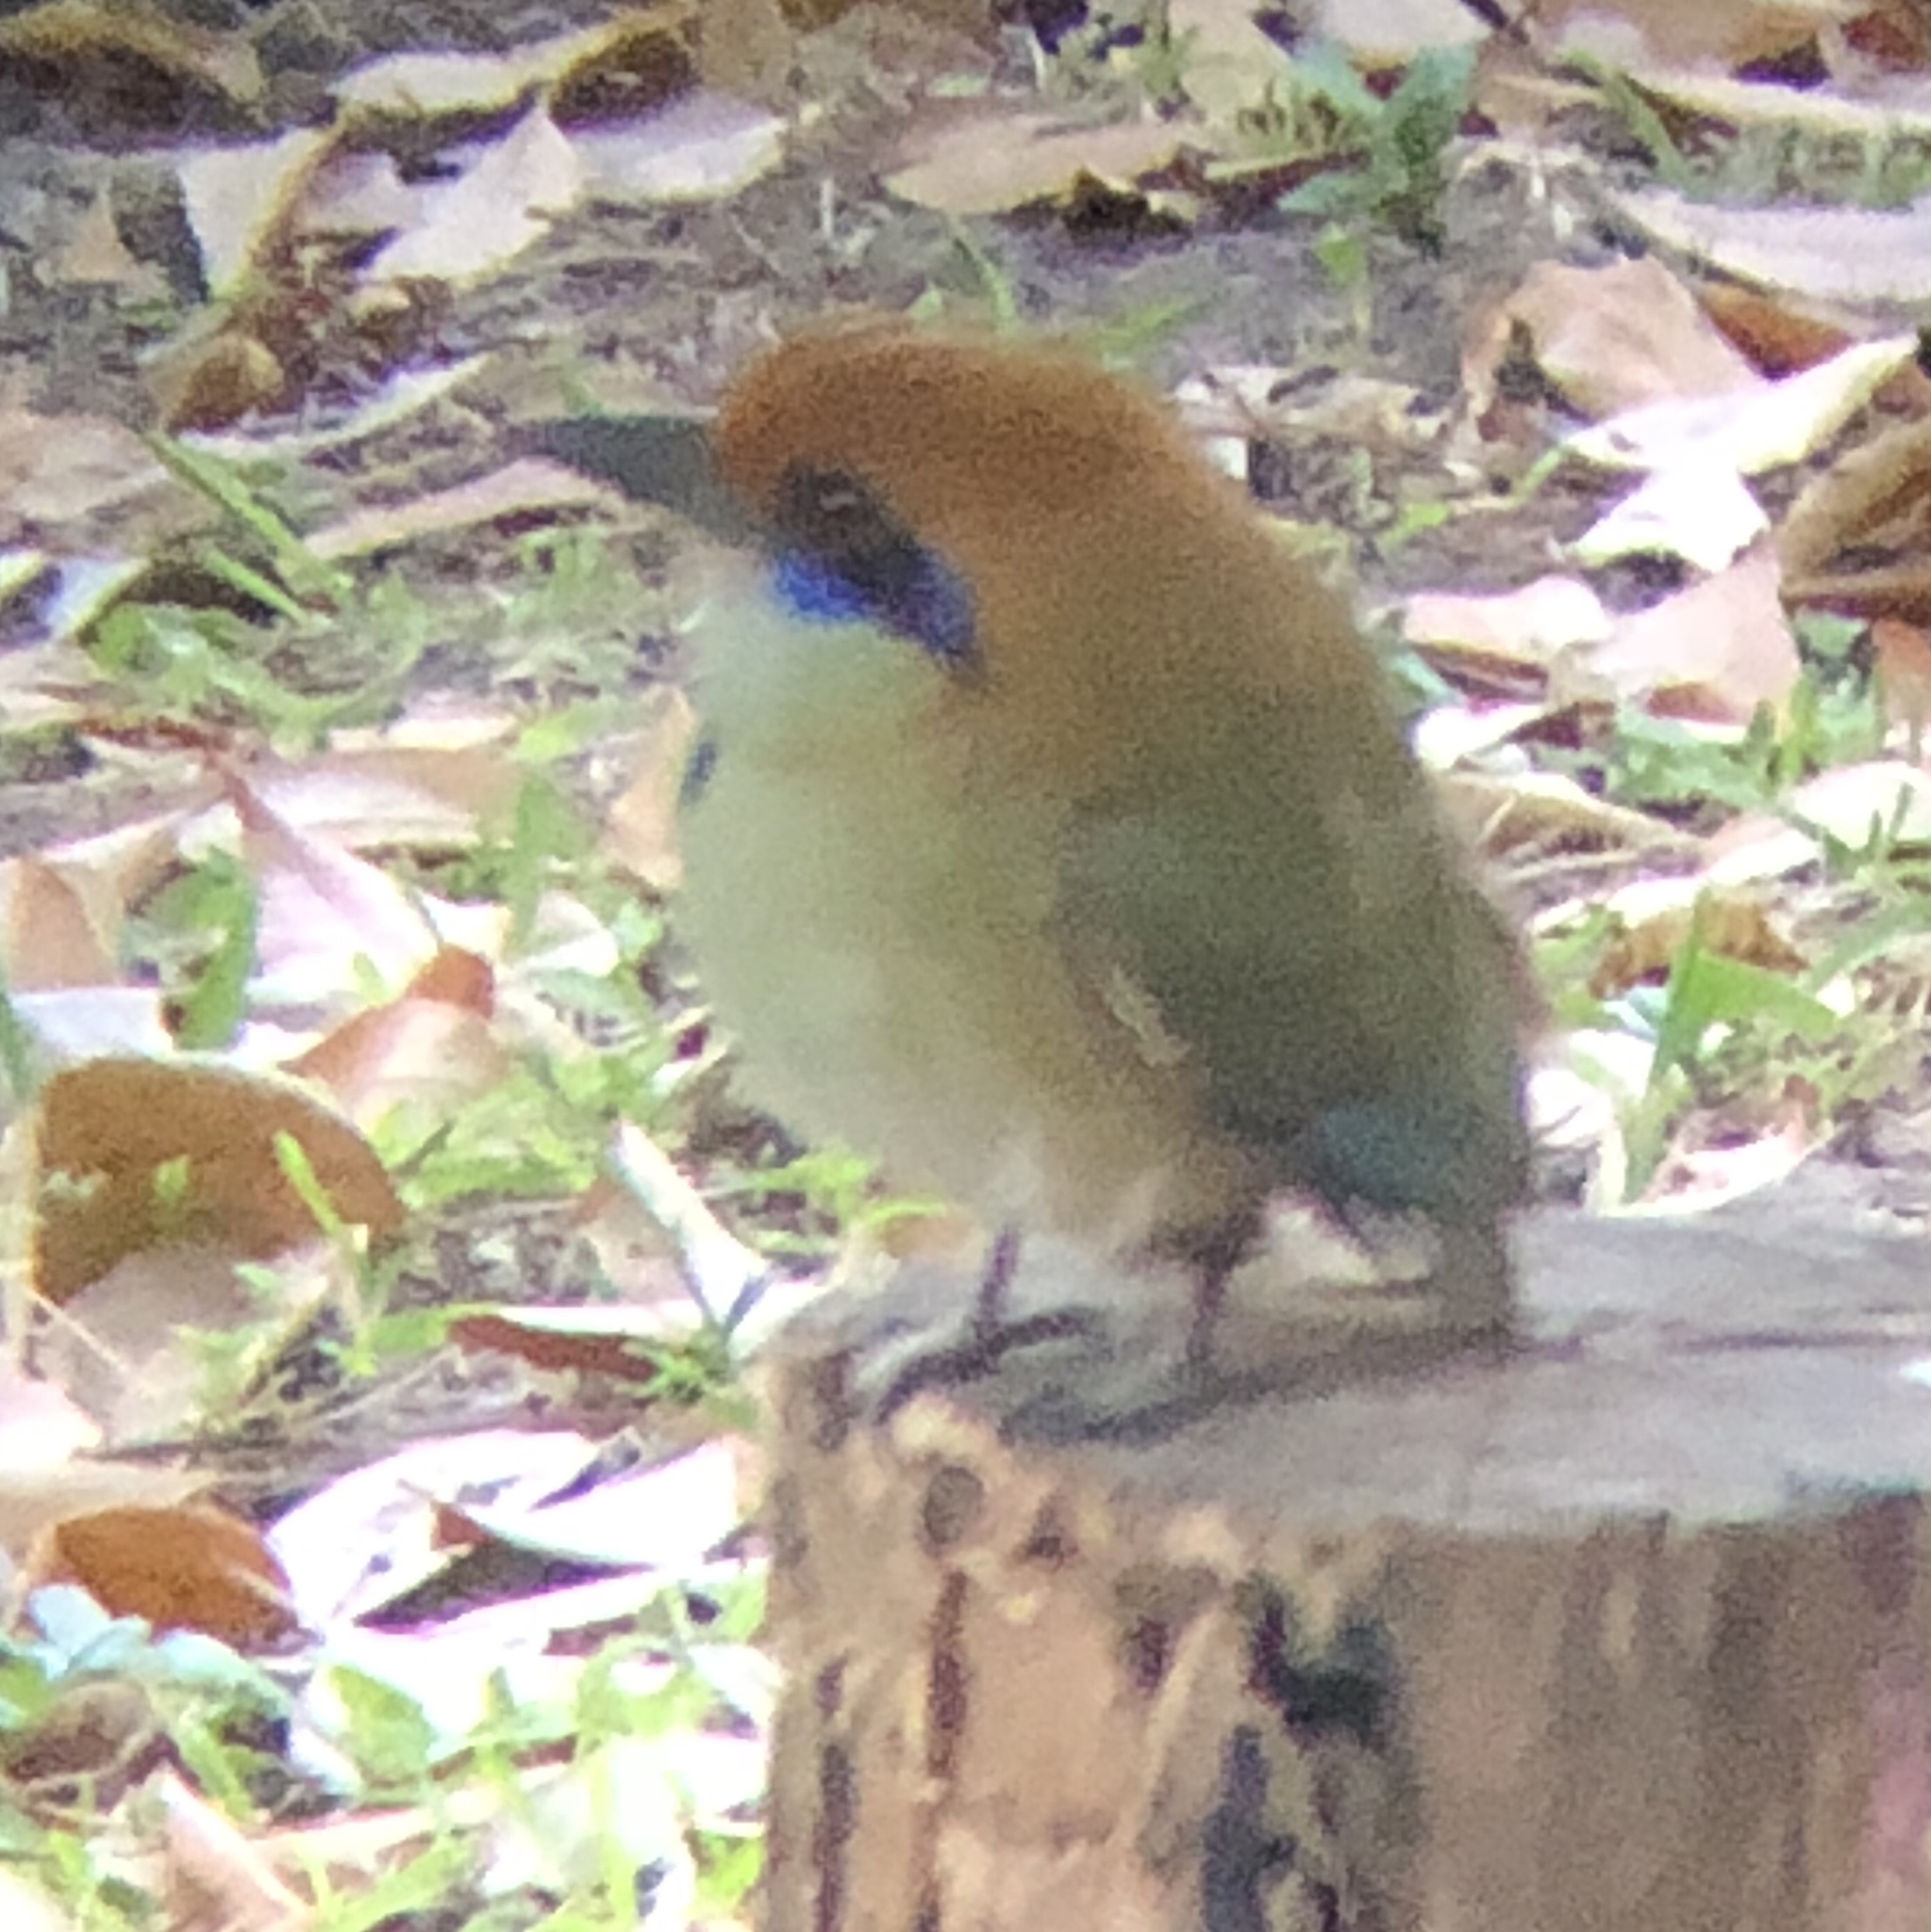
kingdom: Animalia
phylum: Chordata
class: Aves
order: Coraciiformes
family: Momotidae
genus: Momotus
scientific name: Momotus mexicanus
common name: Russet-crowned motmot
